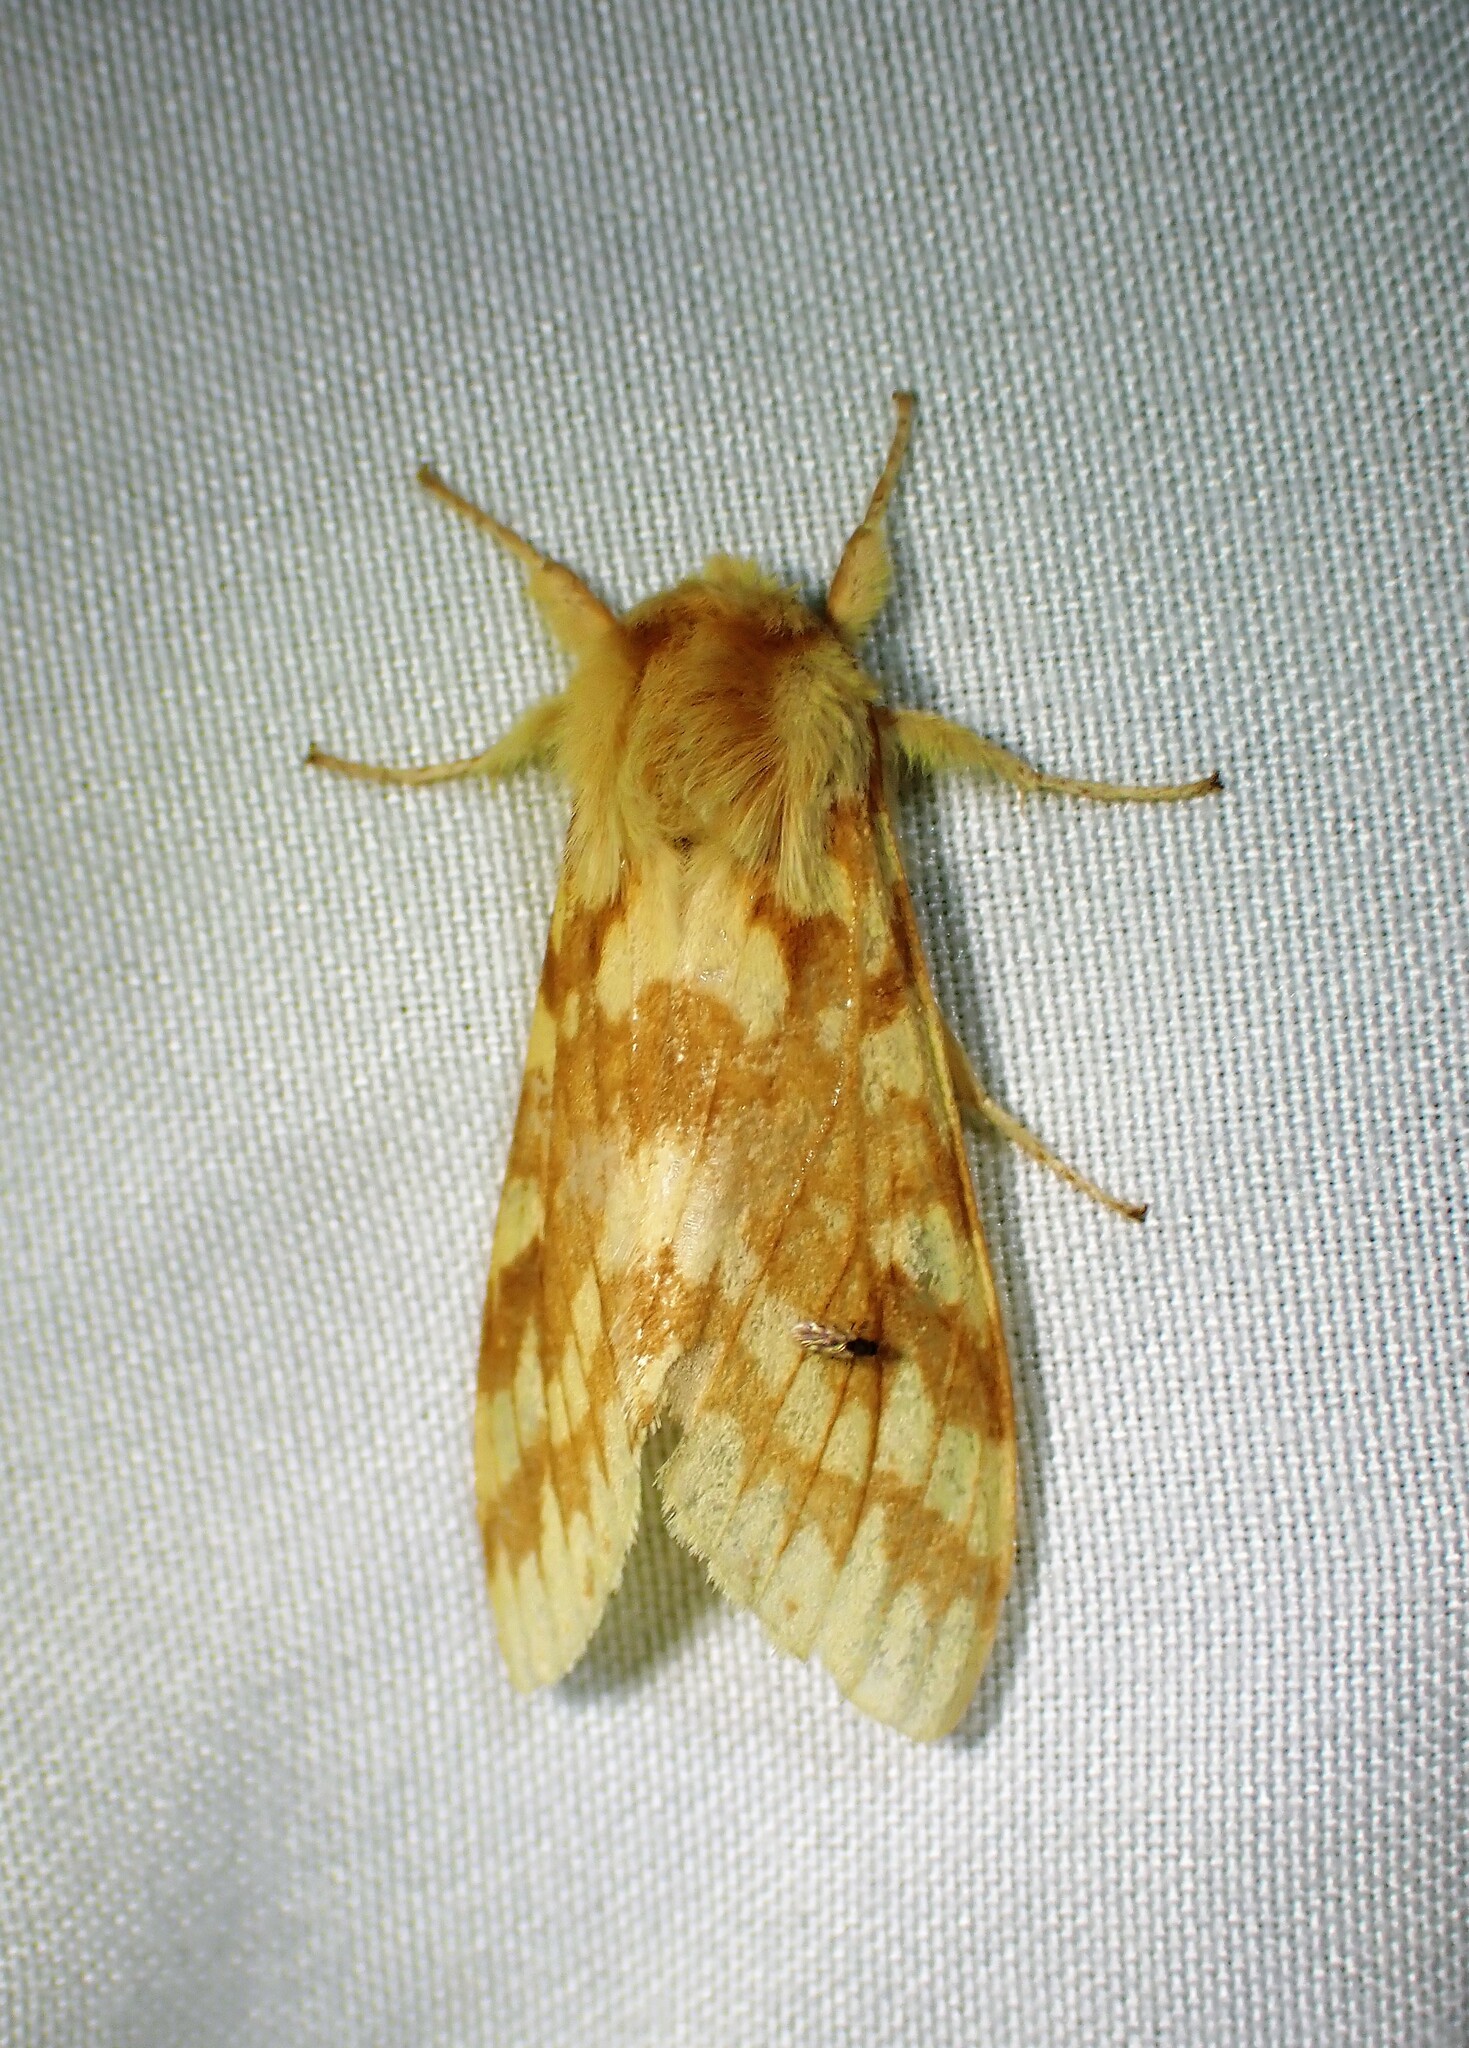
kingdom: Animalia
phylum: Arthropoda
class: Insecta
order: Lepidoptera
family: Erebidae
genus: Lophocampa
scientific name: Lophocampa maculata
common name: Spotted tussock moth
